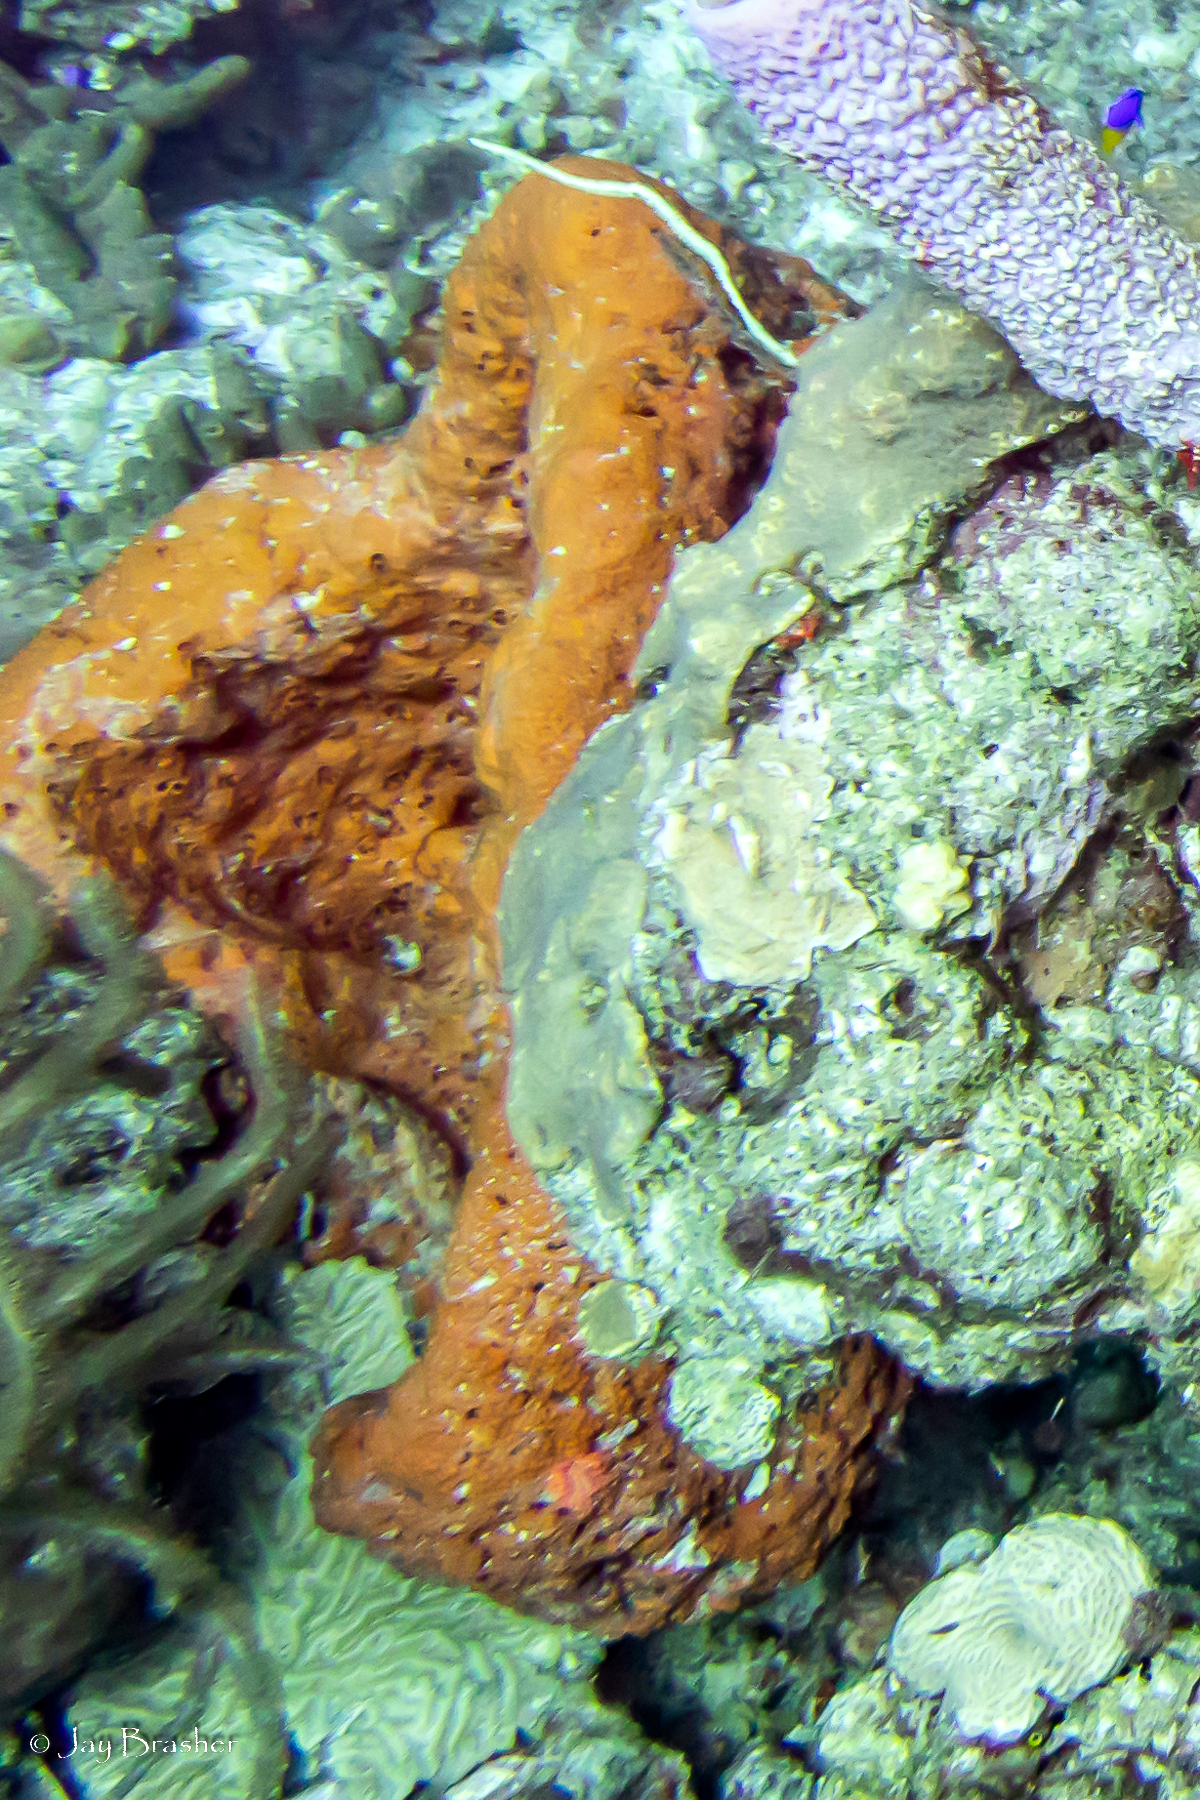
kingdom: Animalia
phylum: Porifera
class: Demospongiae
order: Agelasida
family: Agelasidae
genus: Agelas
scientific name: Agelas clathrodes
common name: Orange elephant ear sponge
